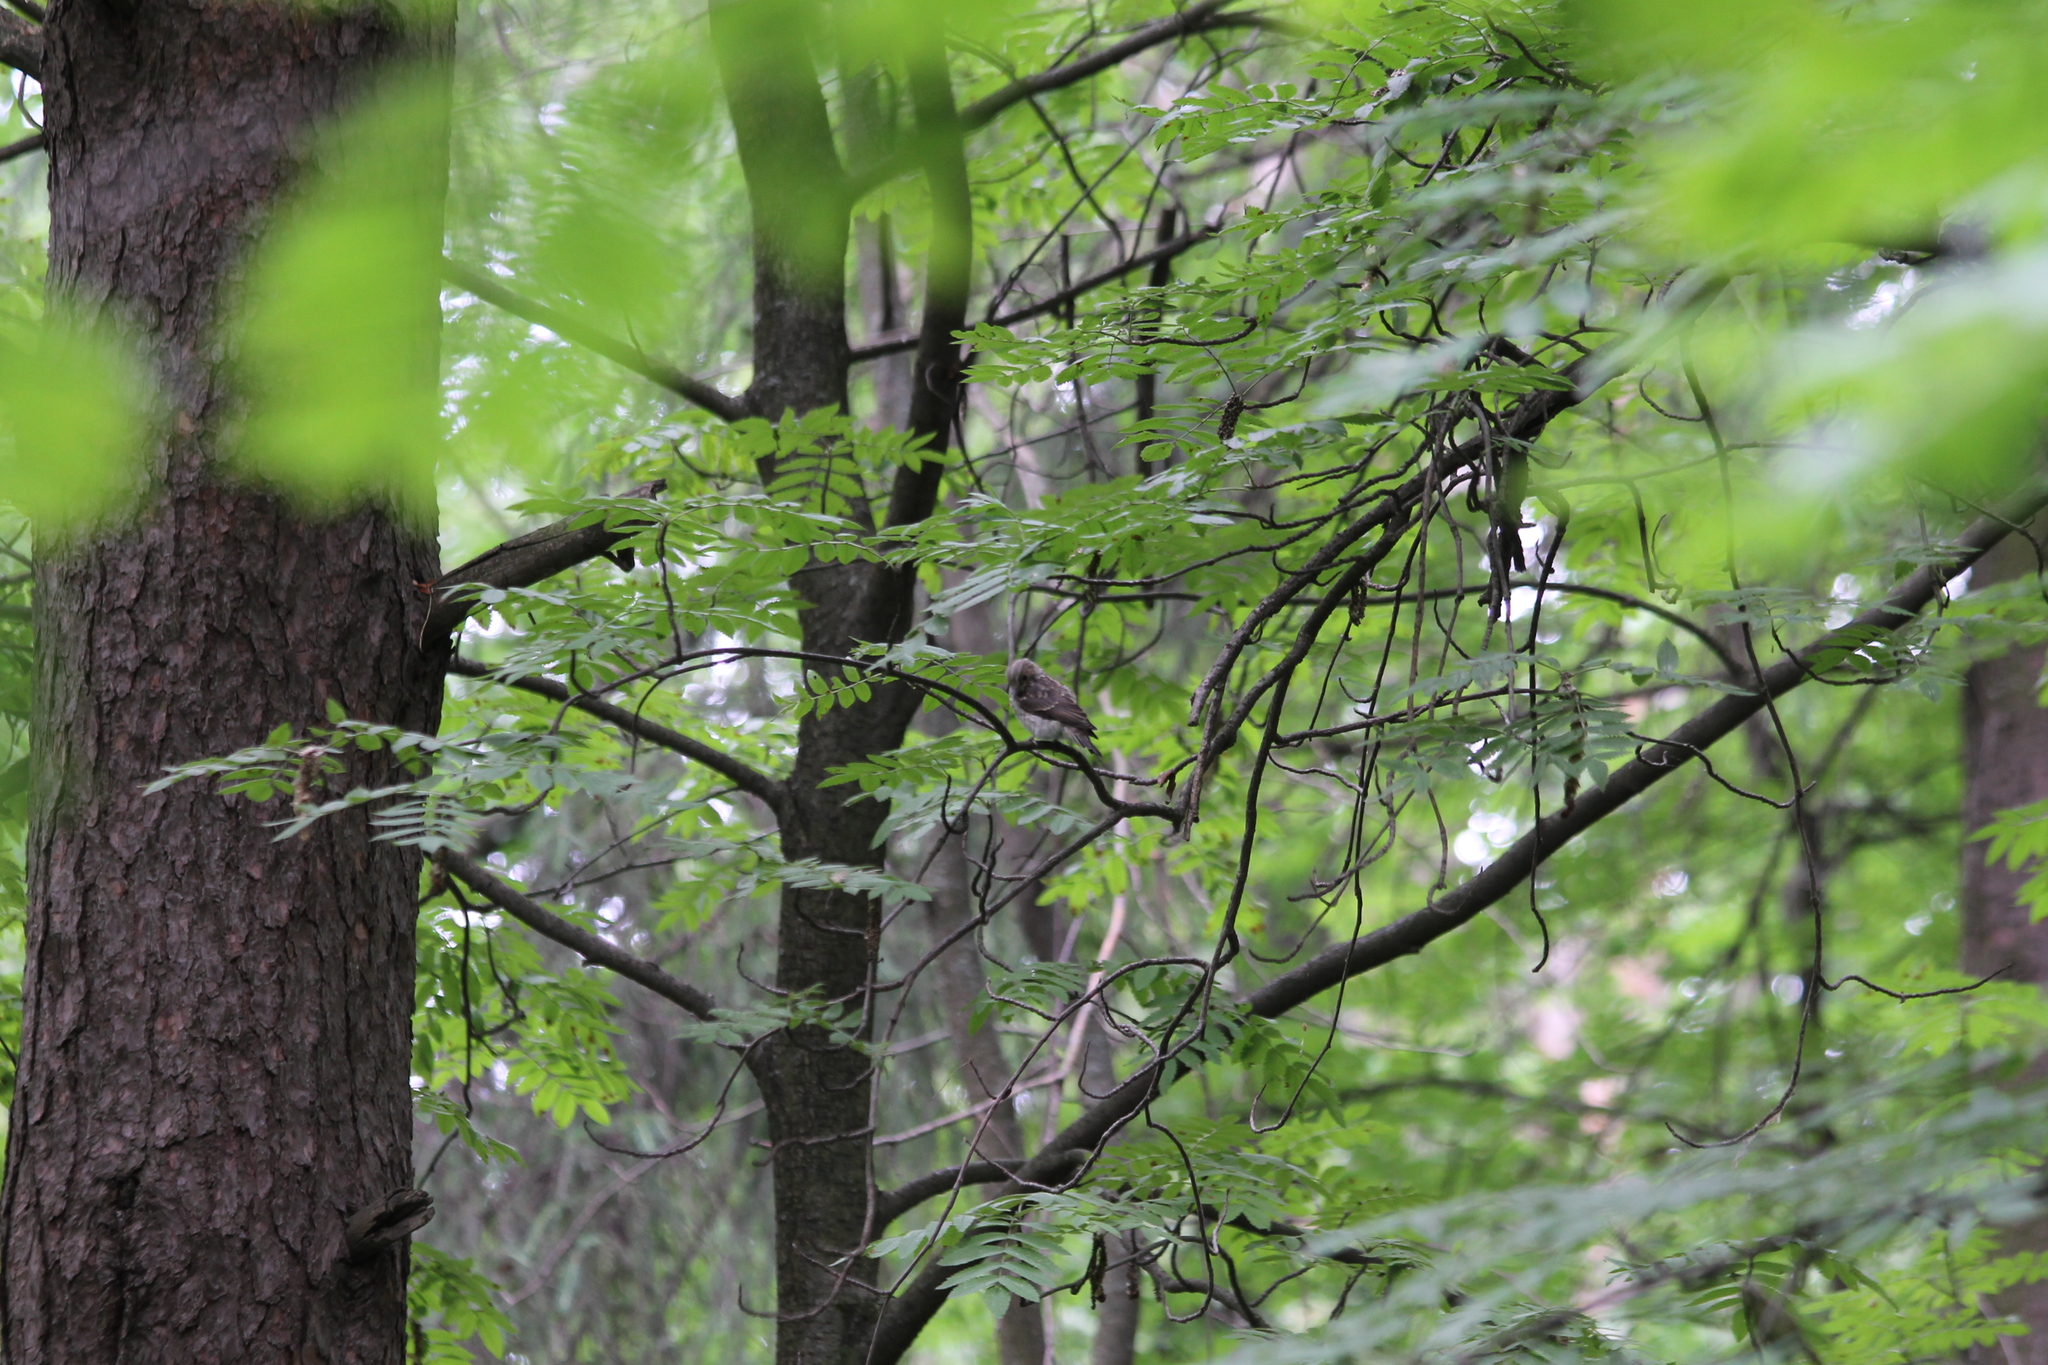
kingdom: Animalia
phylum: Chordata
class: Aves
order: Passeriformes
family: Muscicapidae
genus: Muscicapa
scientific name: Muscicapa striata
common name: Spotted flycatcher
